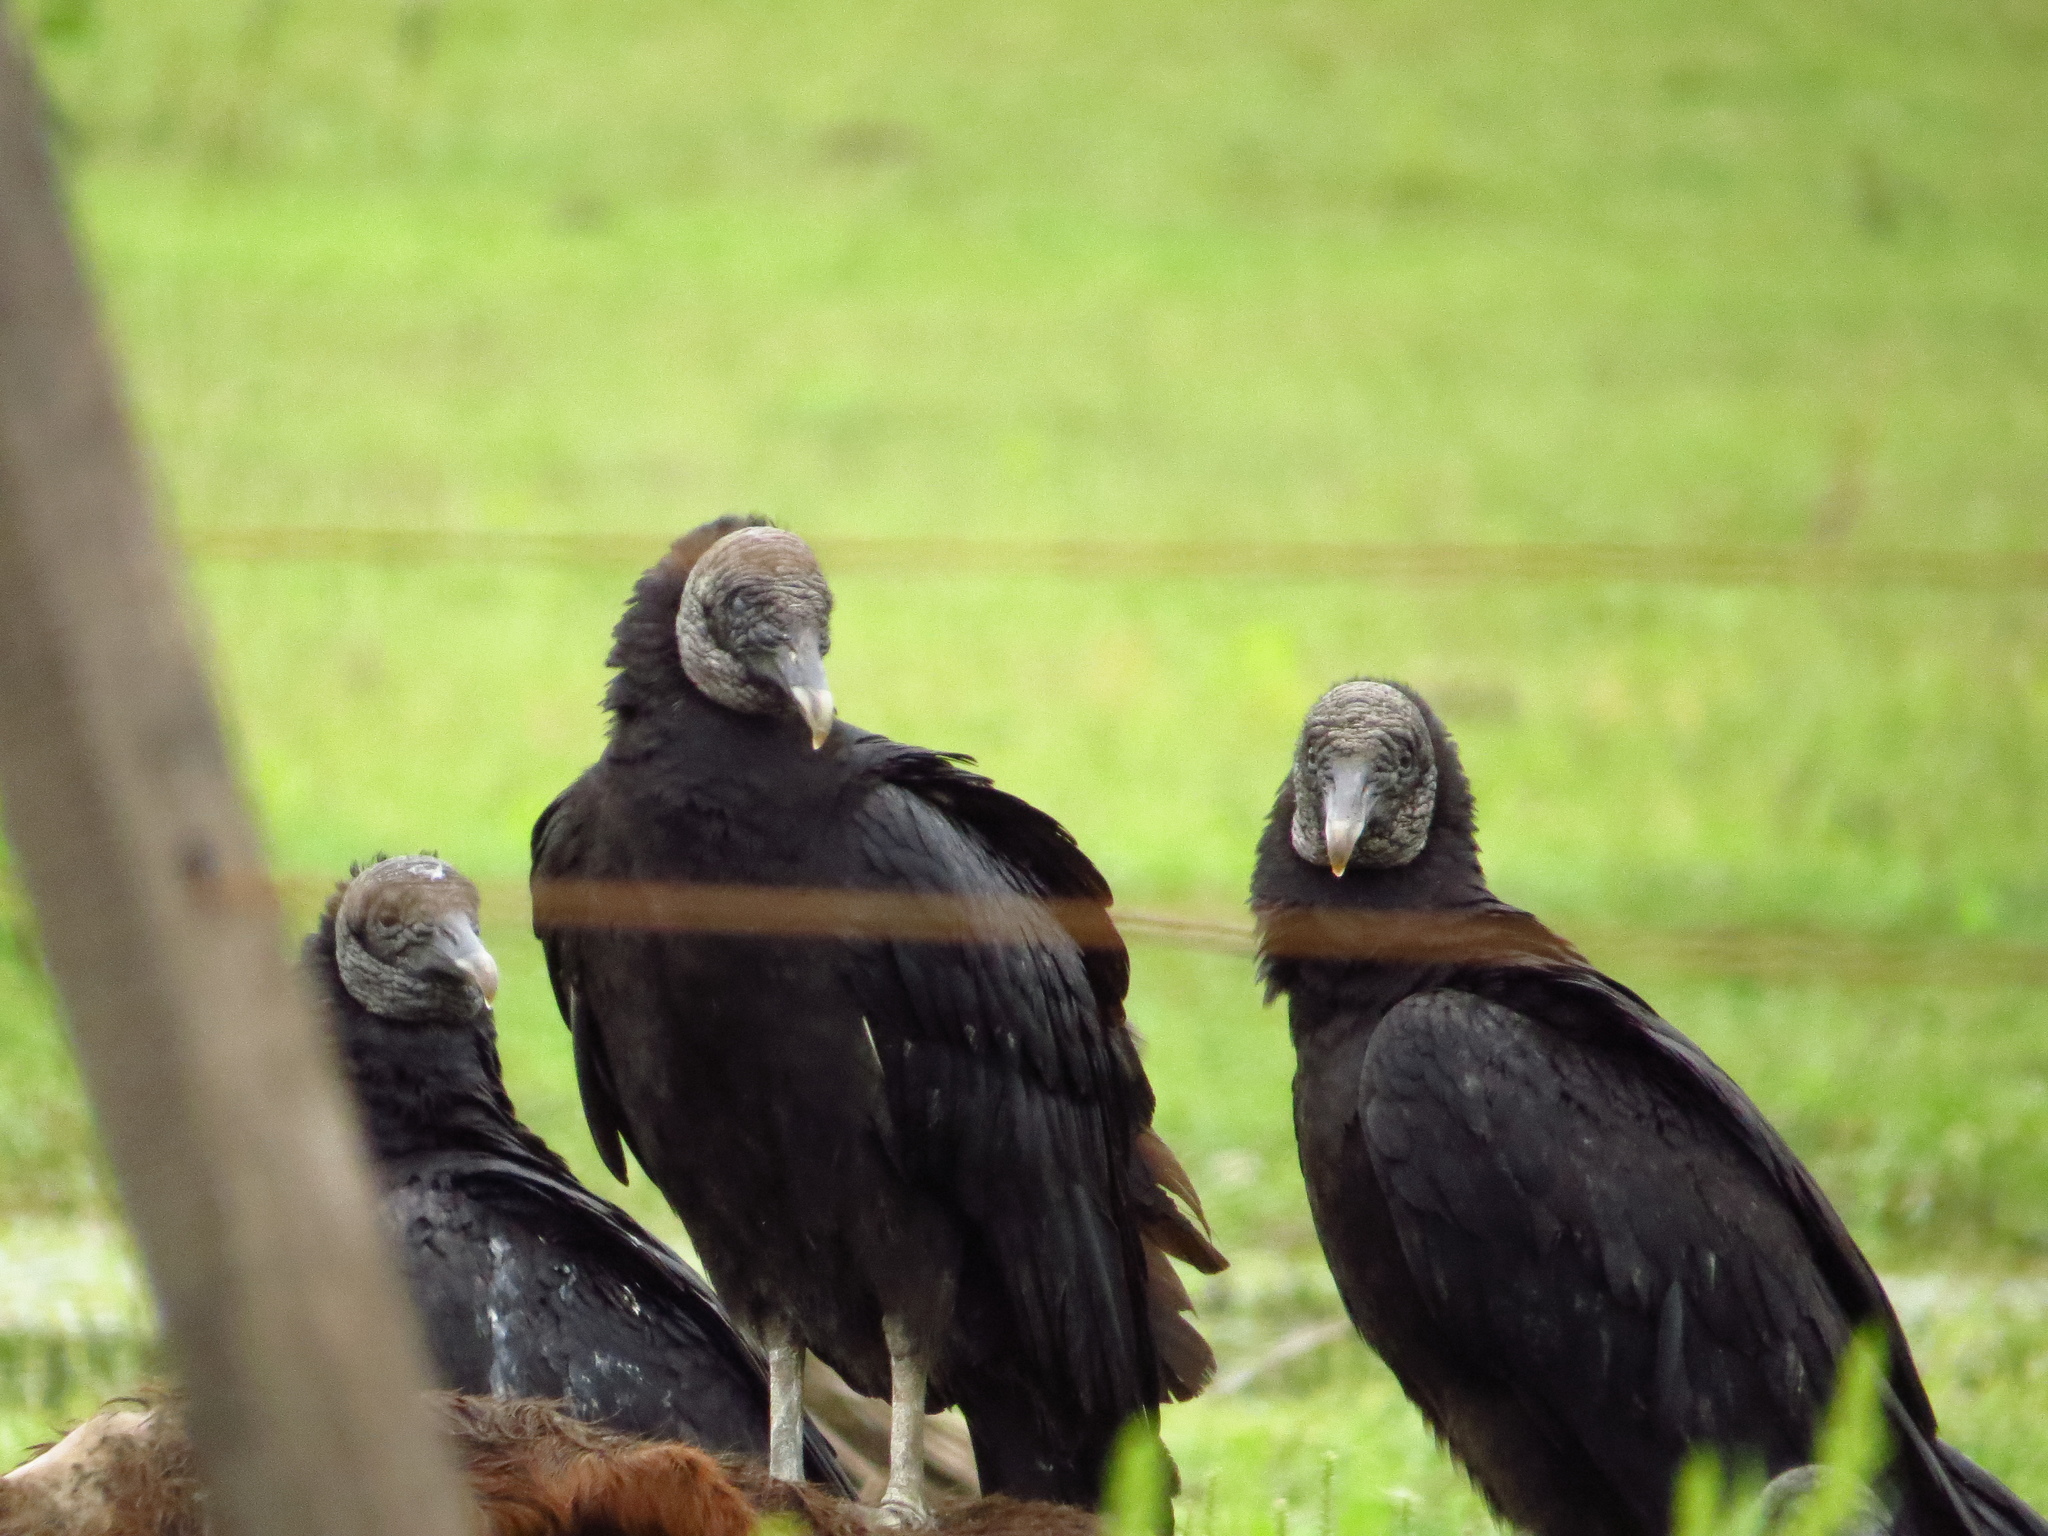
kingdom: Animalia
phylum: Chordata
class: Aves
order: Accipitriformes
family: Cathartidae
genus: Coragyps
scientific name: Coragyps atratus
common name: Black vulture
